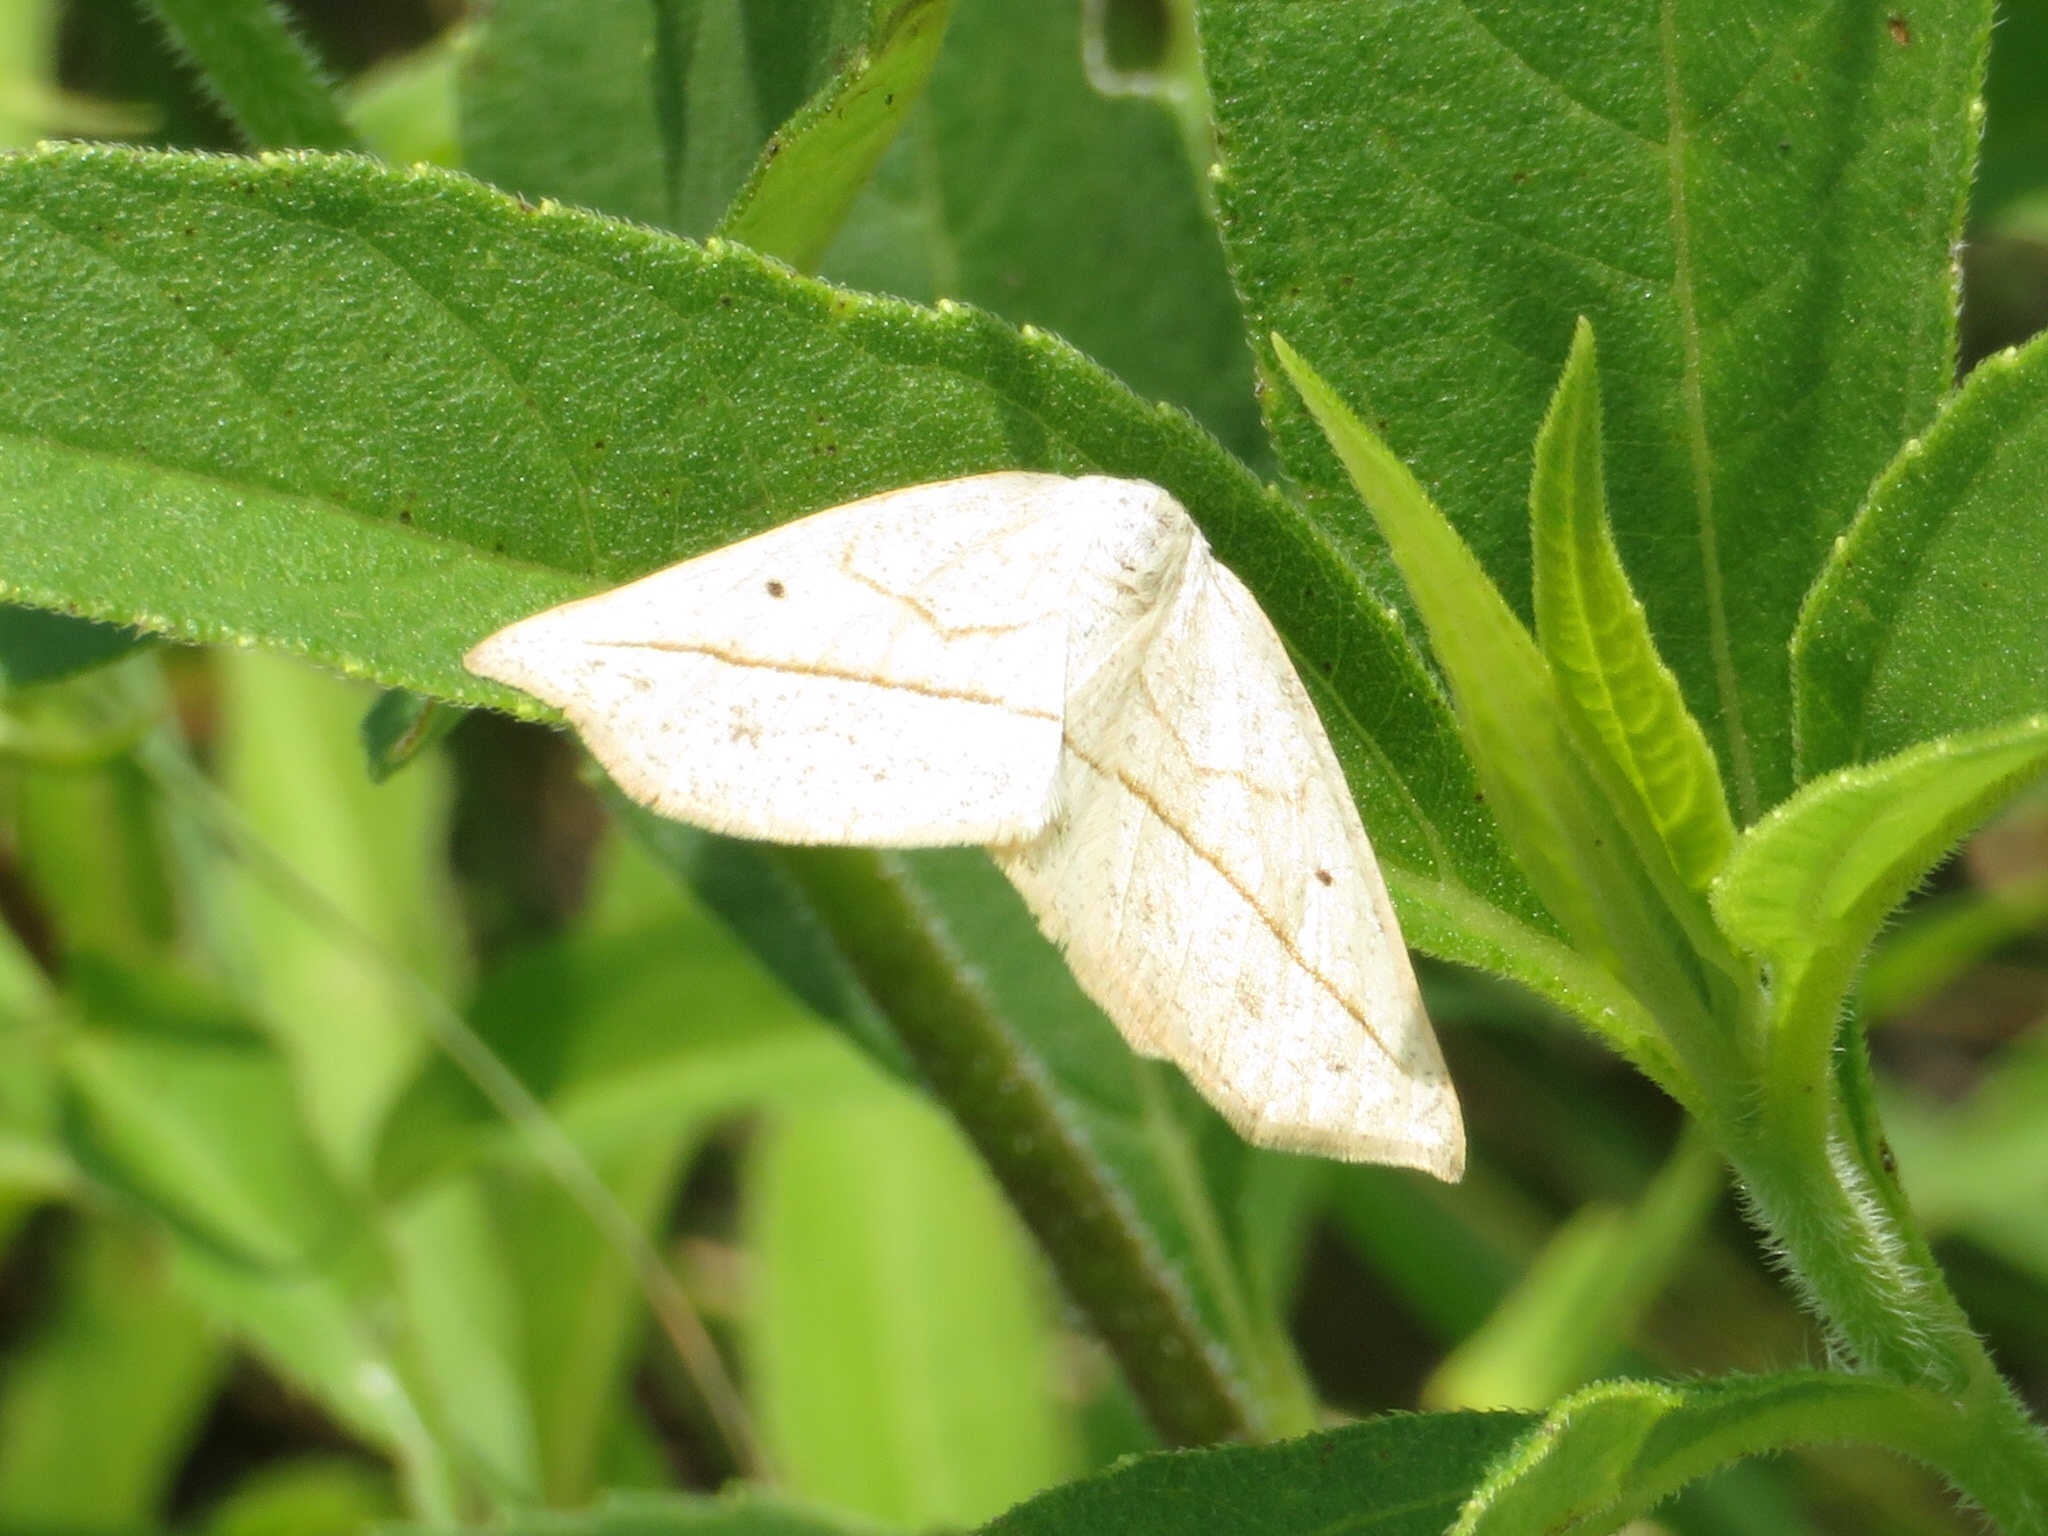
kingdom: Animalia
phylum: Arthropoda
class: Insecta
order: Lepidoptera
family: Geometridae
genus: Eusarca
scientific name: Eusarca confusaria
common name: Confused eusarca
